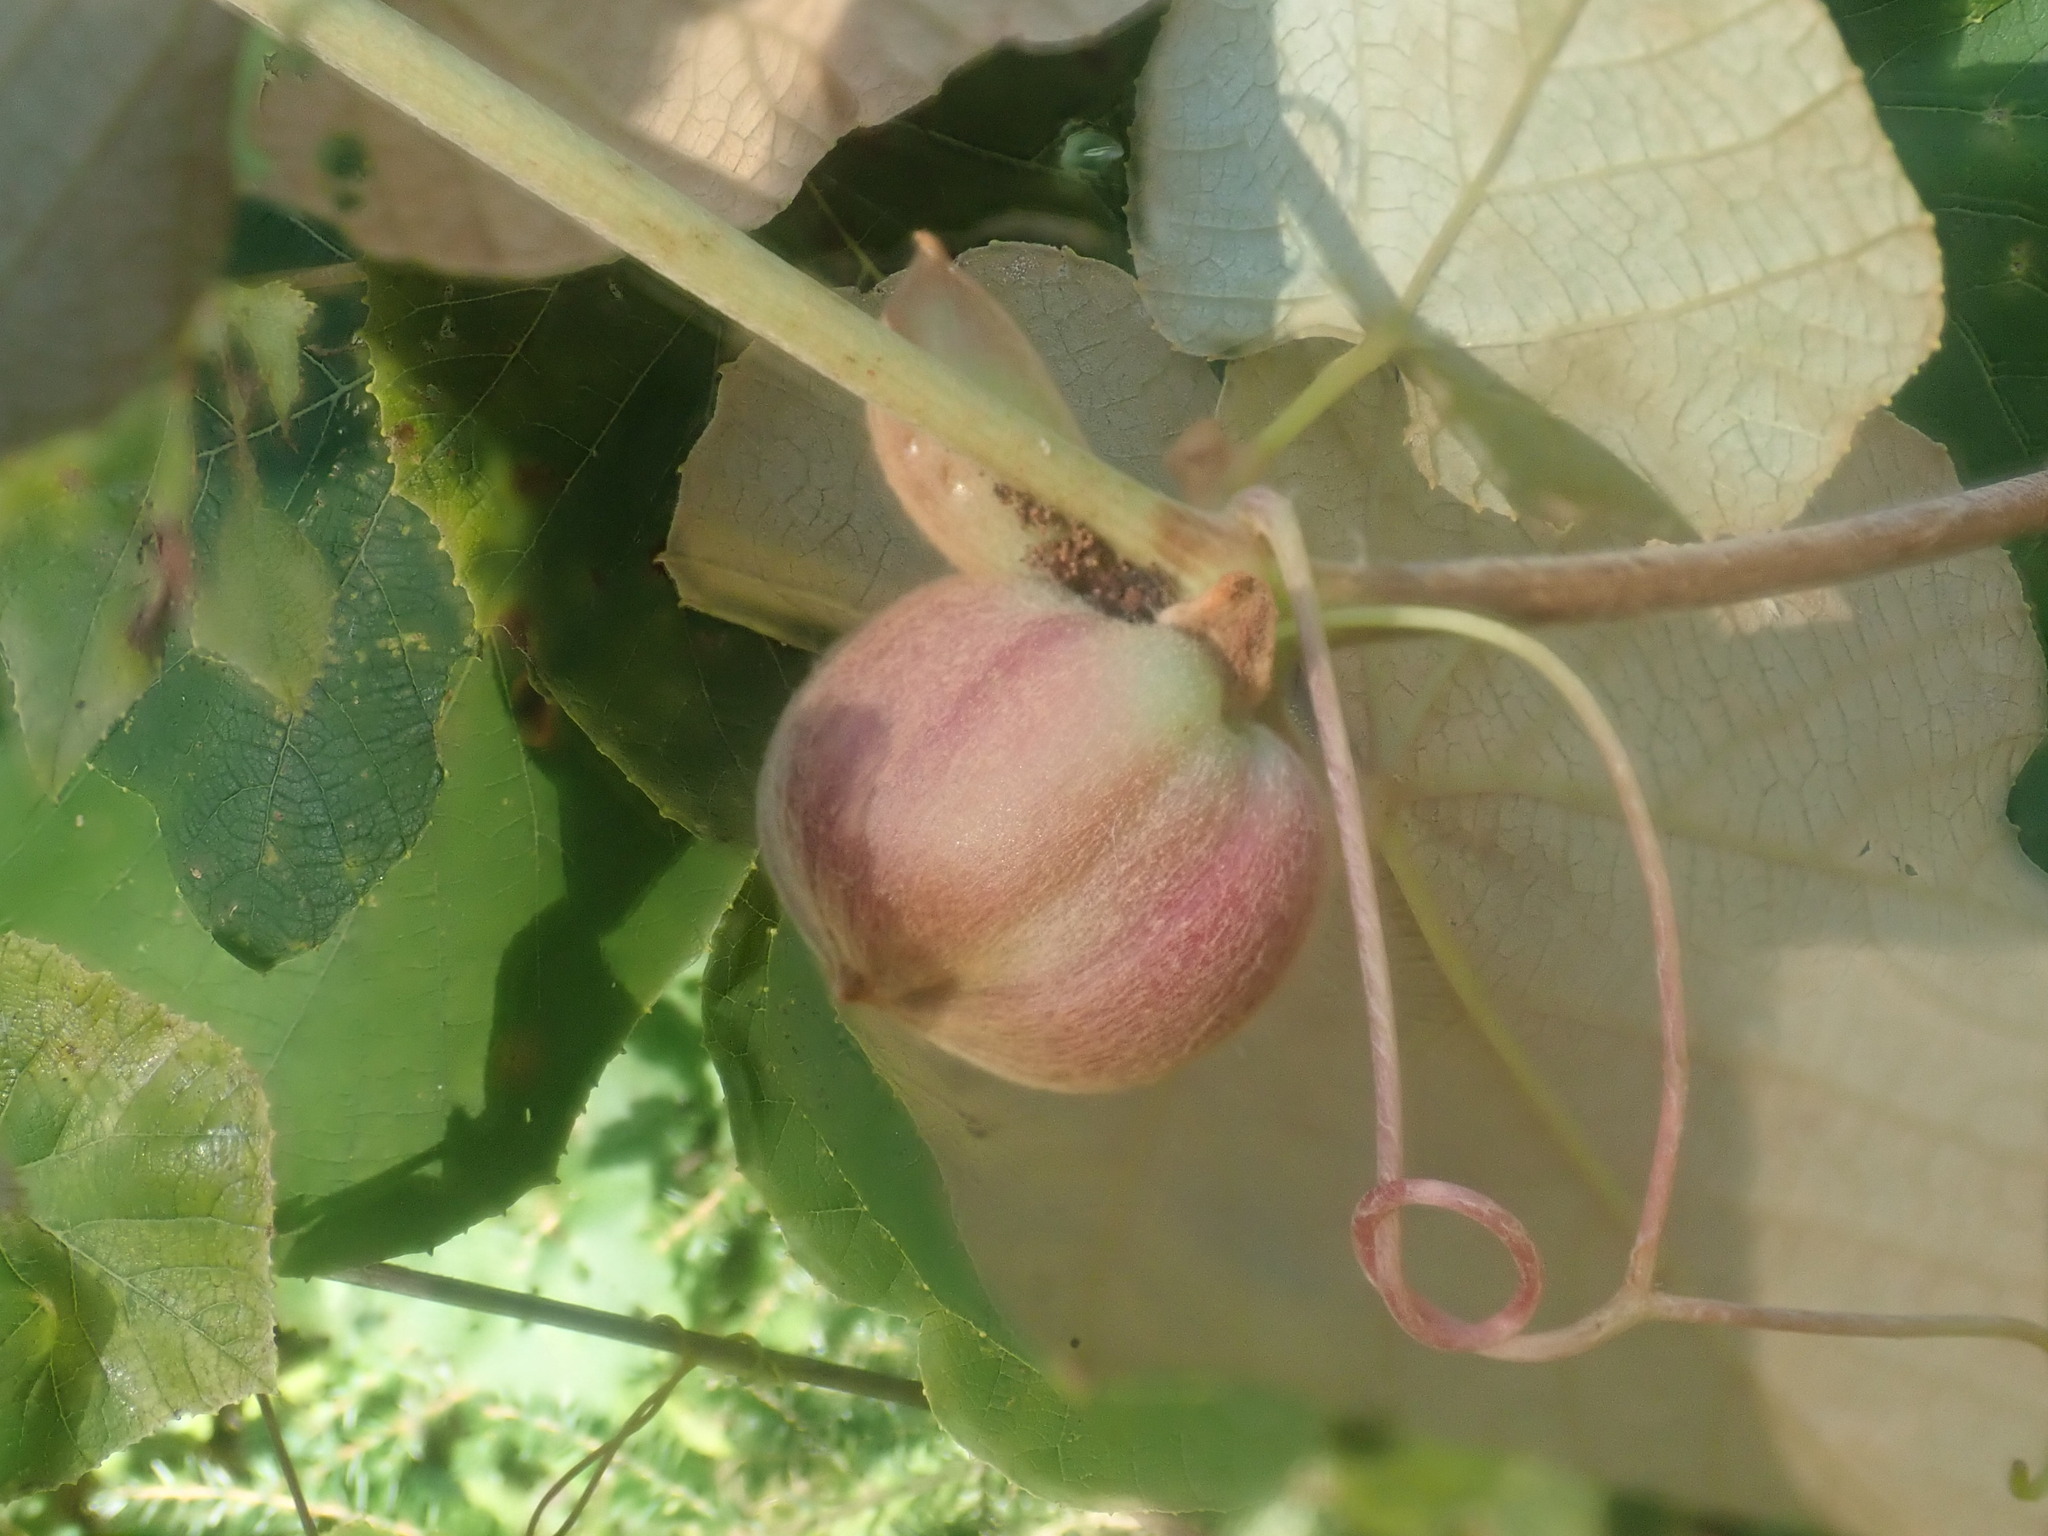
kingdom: Animalia
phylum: Arthropoda
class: Insecta
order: Diptera
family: Cecidomyiidae
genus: Ampelomyia
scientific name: Ampelomyia vitispomum
